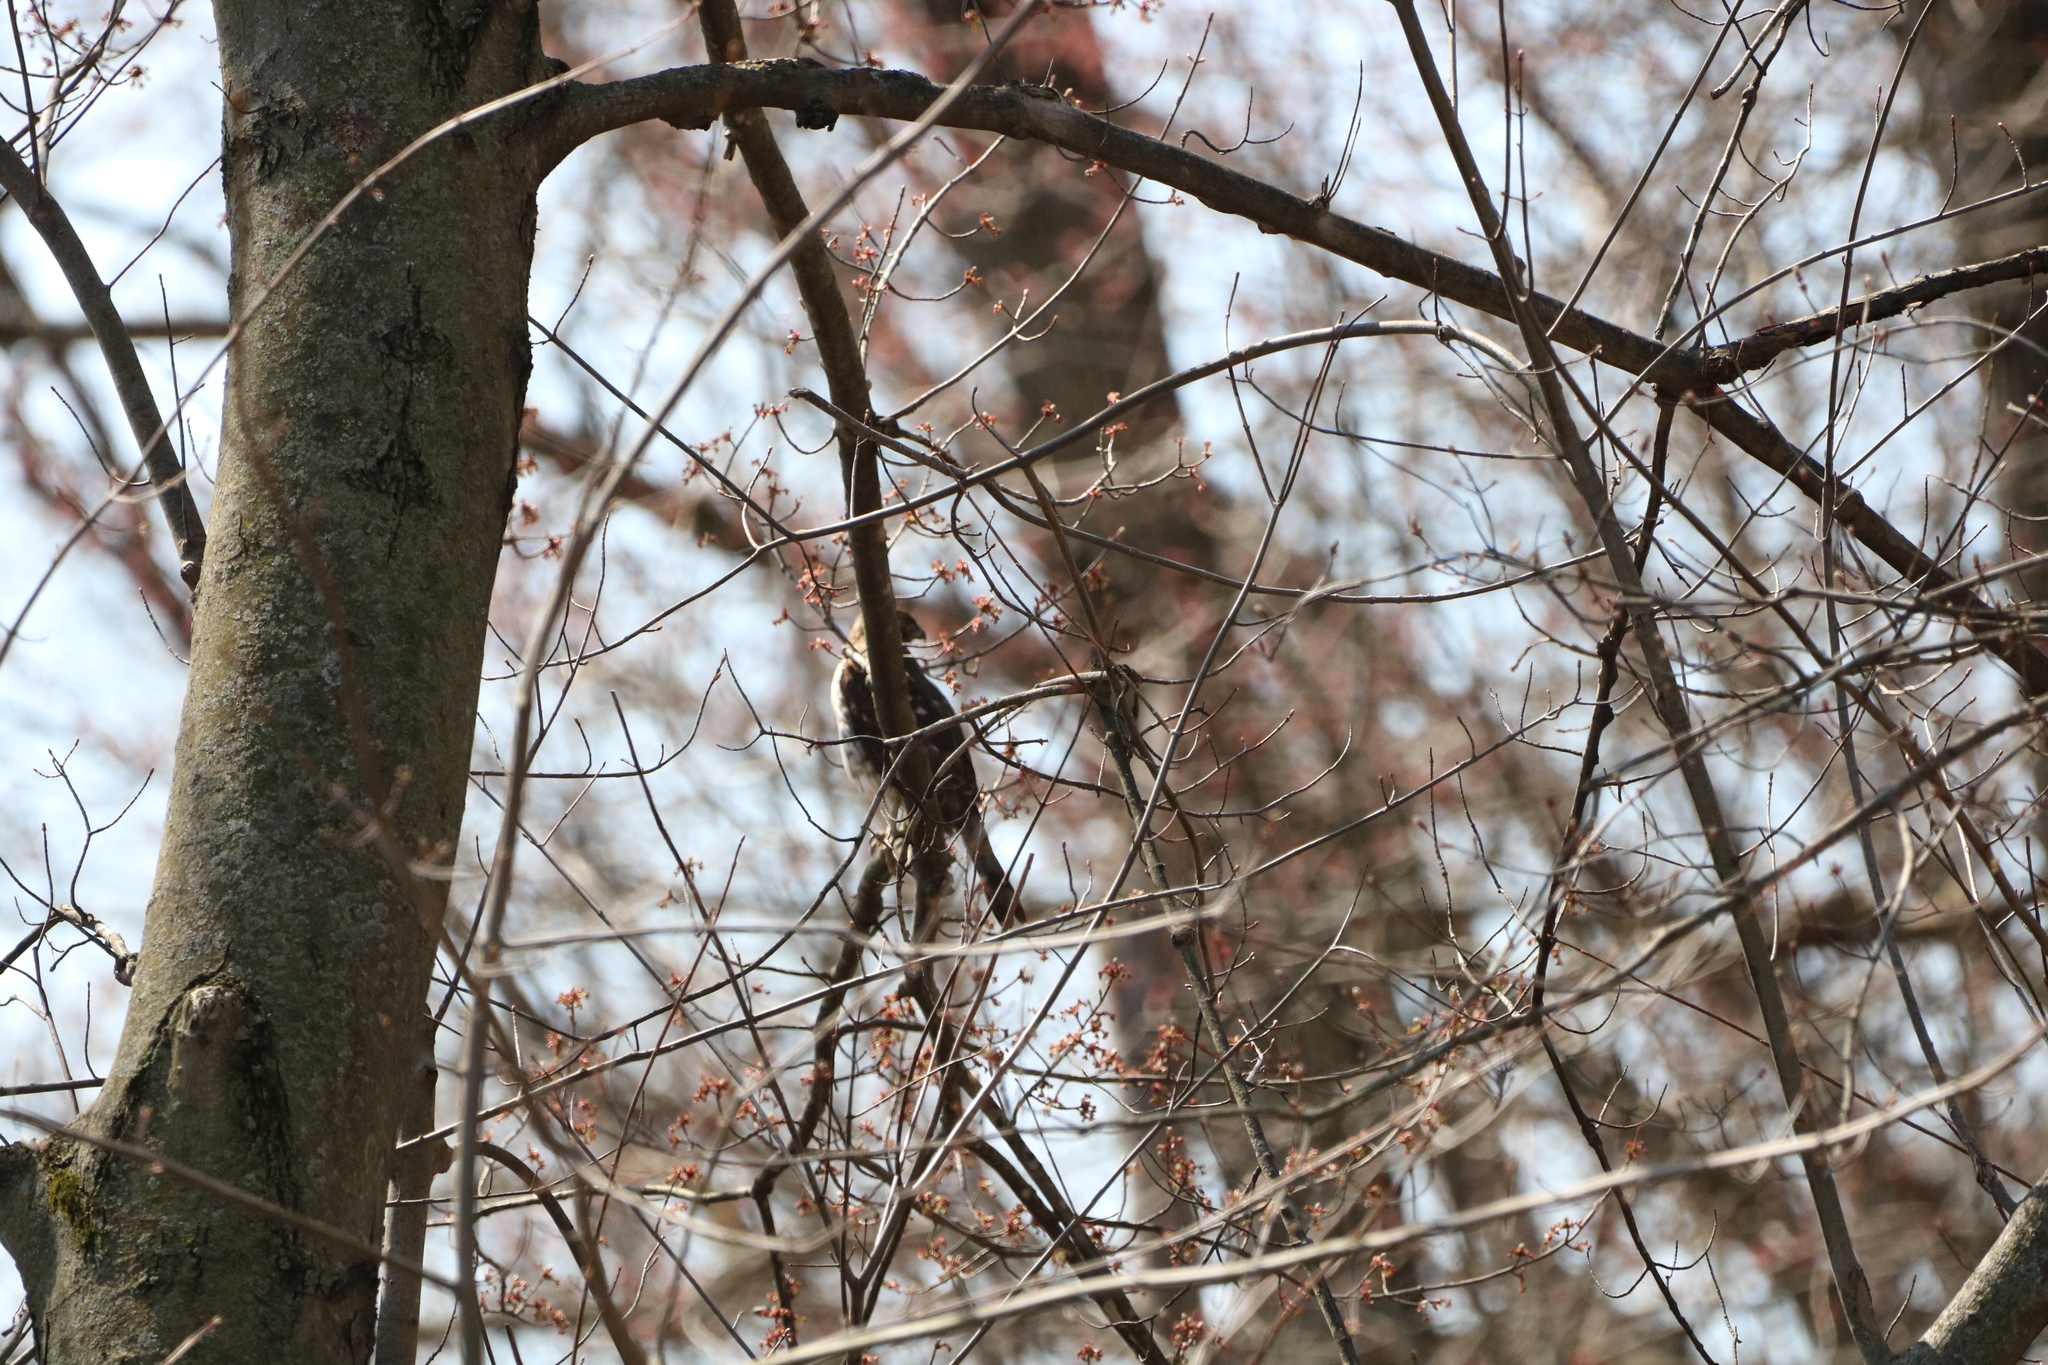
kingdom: Animalia
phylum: Chordata
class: Aves
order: Accipitriformes
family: Accipitridae
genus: Accipiter
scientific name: Accipiter cooperii
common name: Cooper's hawk
